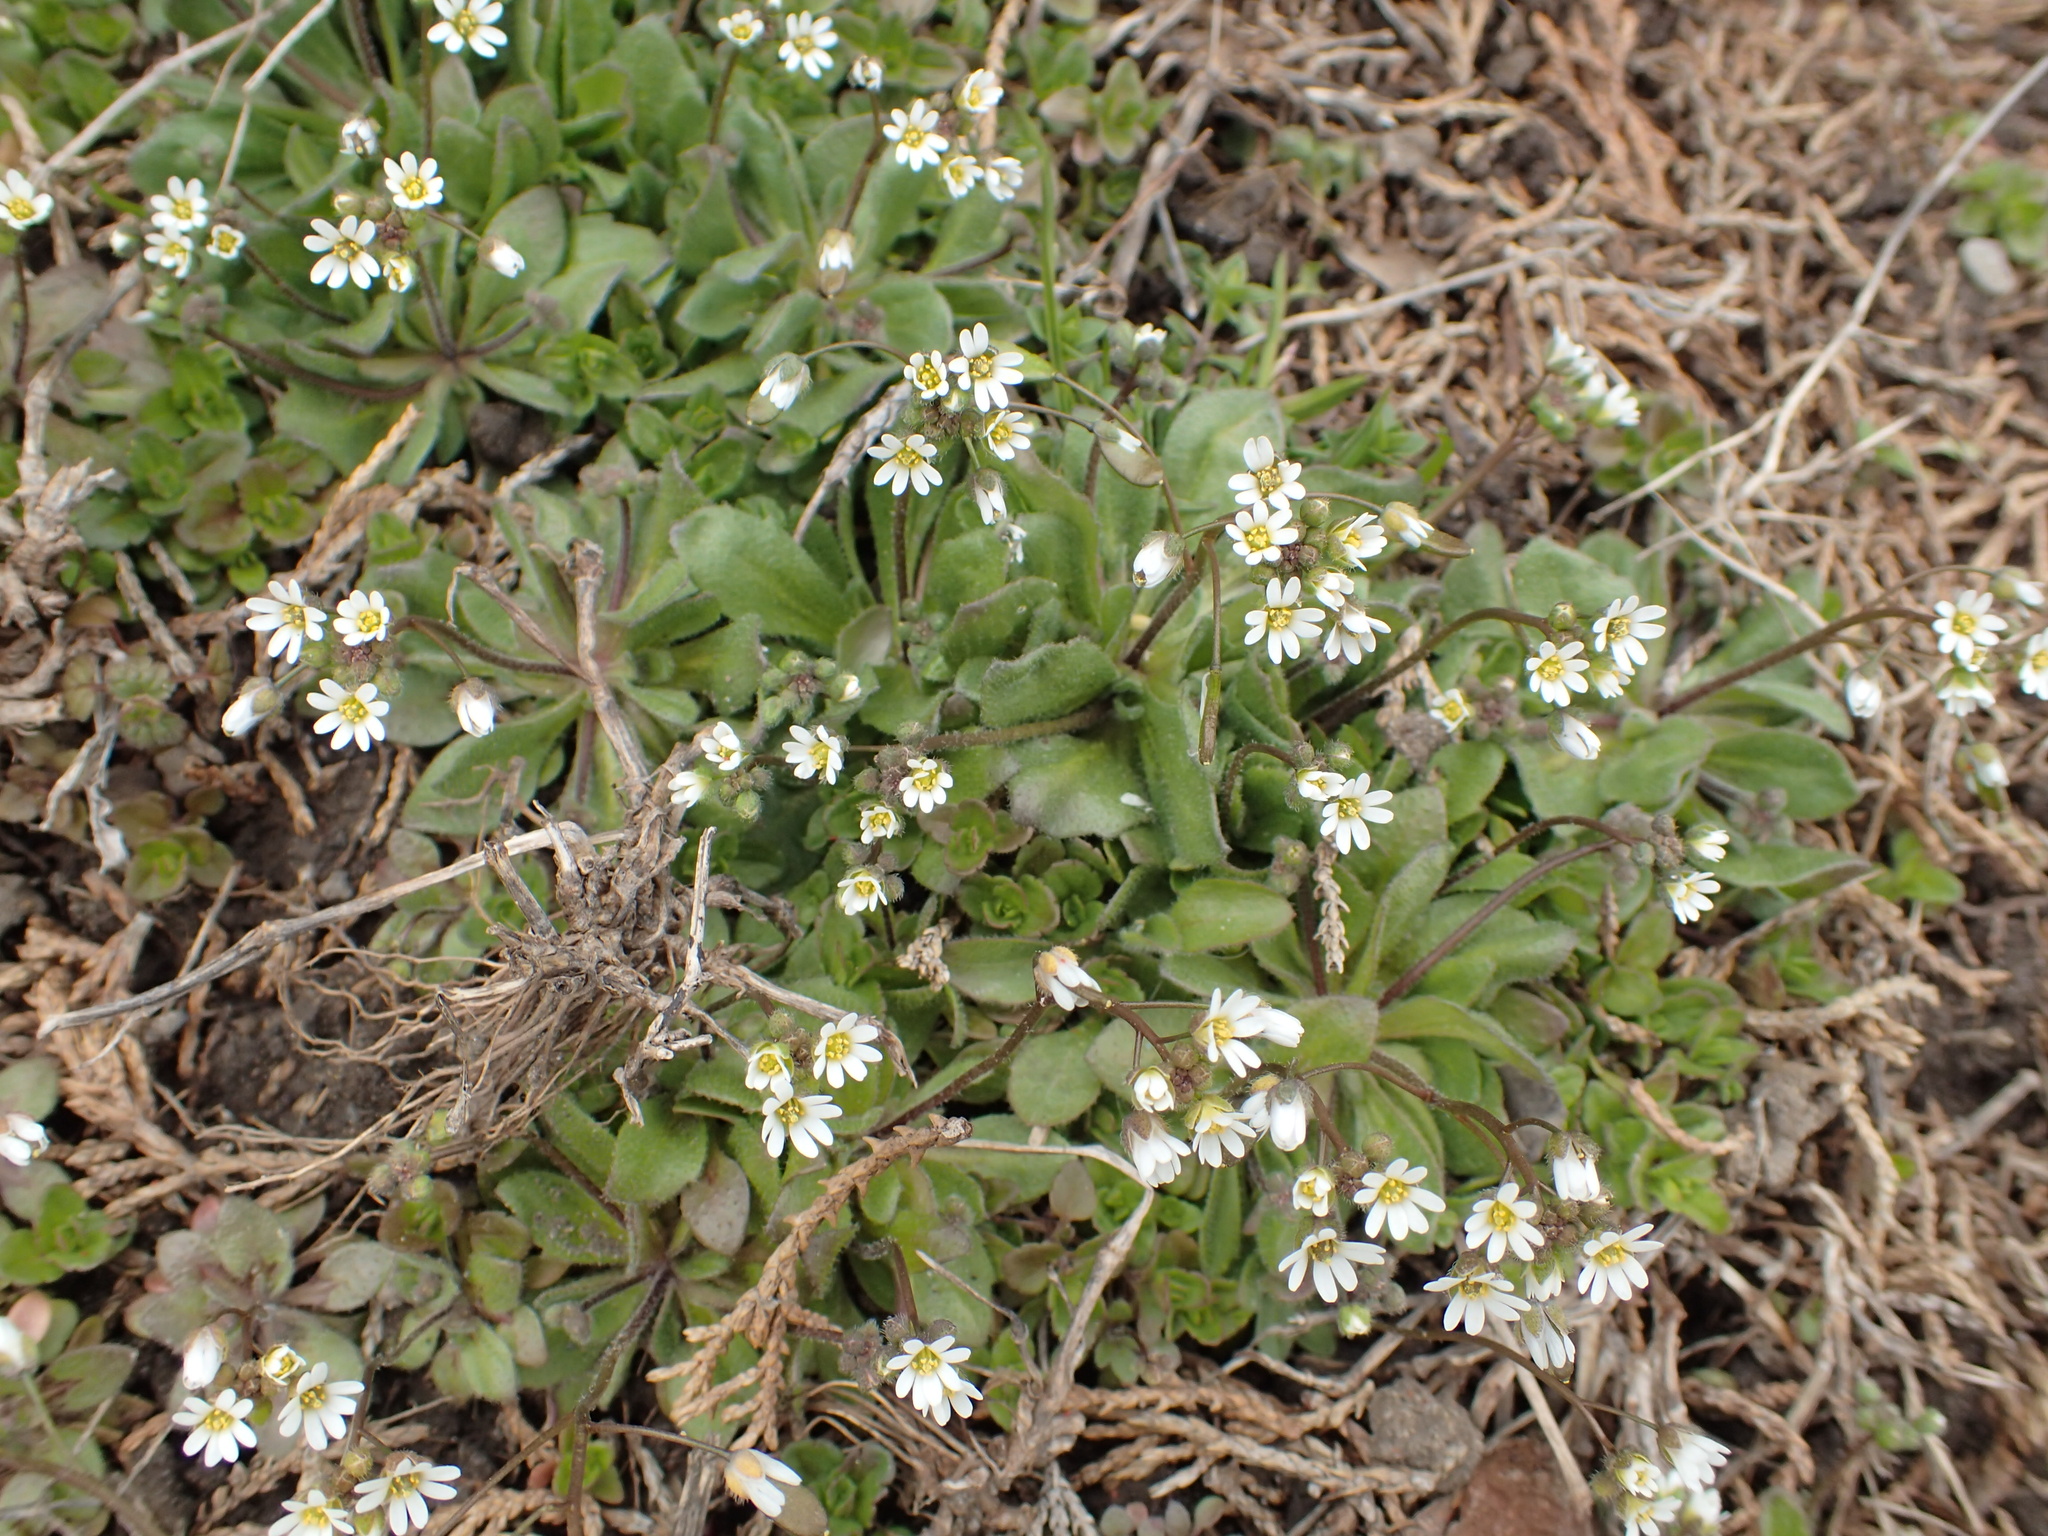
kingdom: Plantae
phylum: Tracheophyta
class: Magnoliopsida
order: Brassicales
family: Brassicaceae
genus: Draba
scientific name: Draba verna
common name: Spring draba
